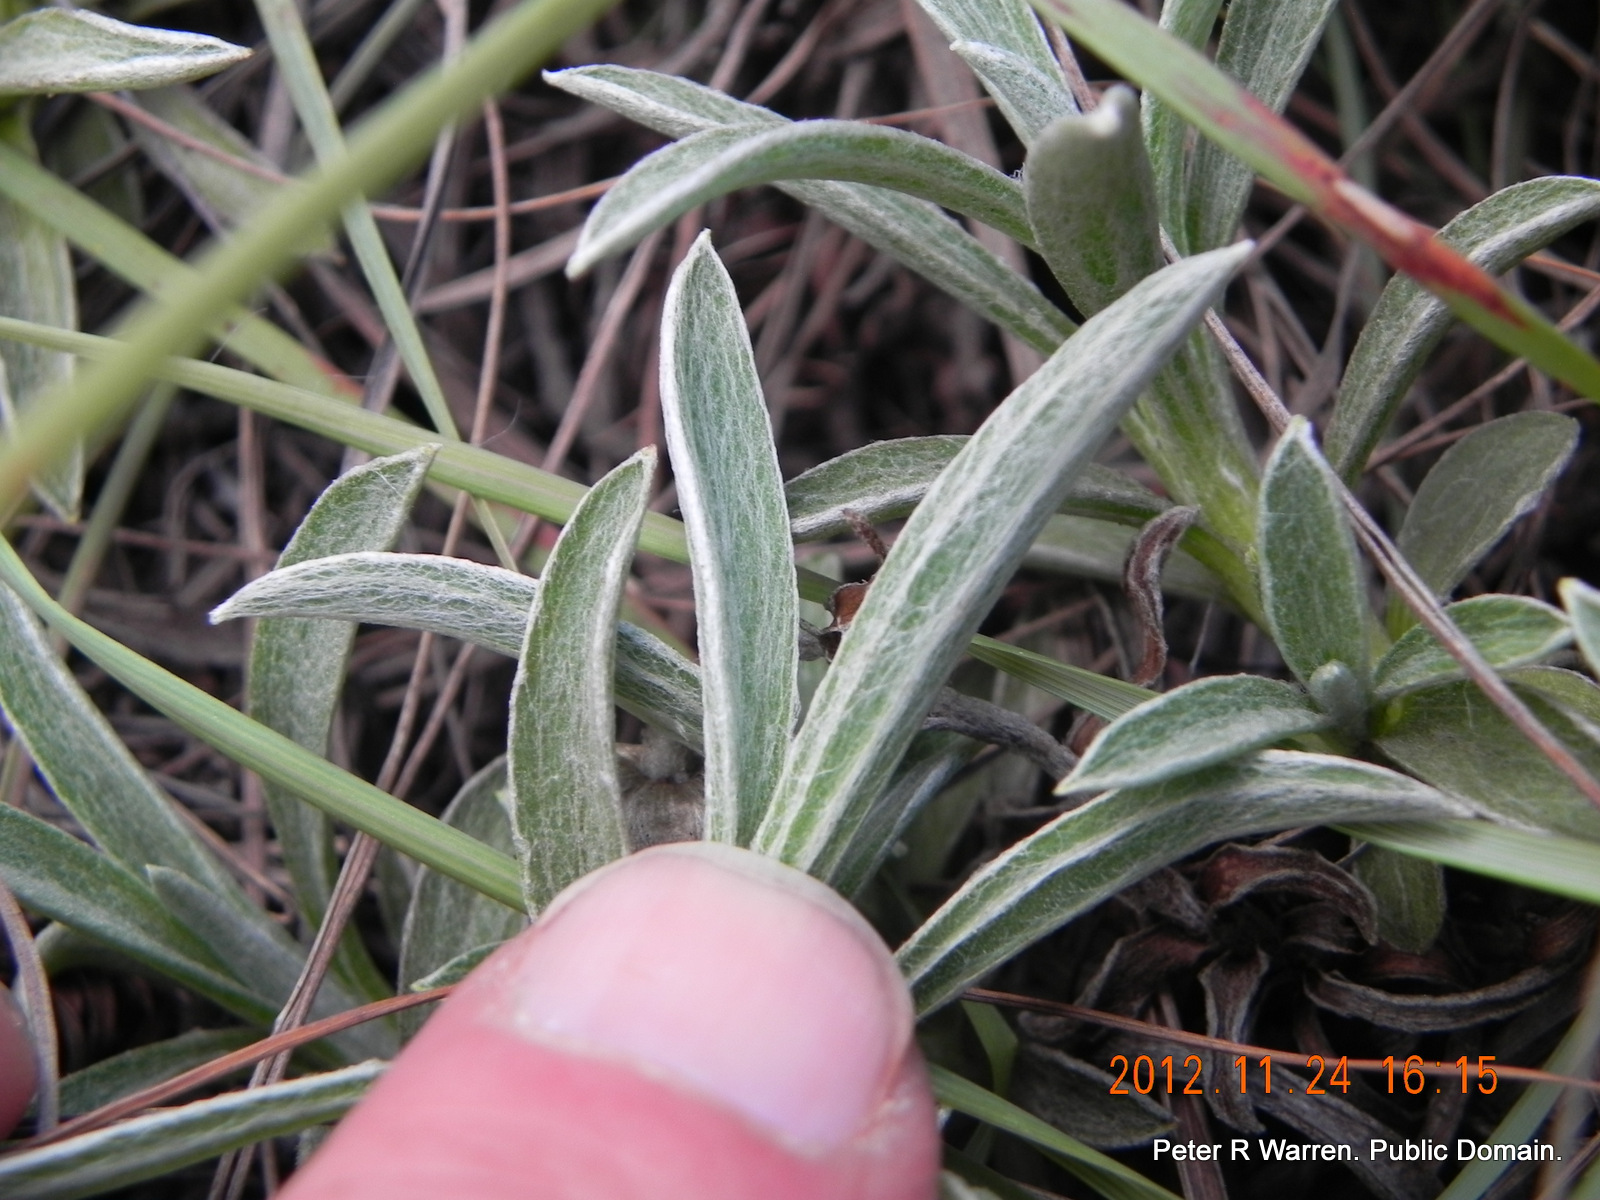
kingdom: Plantae
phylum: Tracheophyta
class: Magnoliopsida
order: Asterales
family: Asteraceae
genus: Helichrysum
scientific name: Helichrysum chionosphaerum
